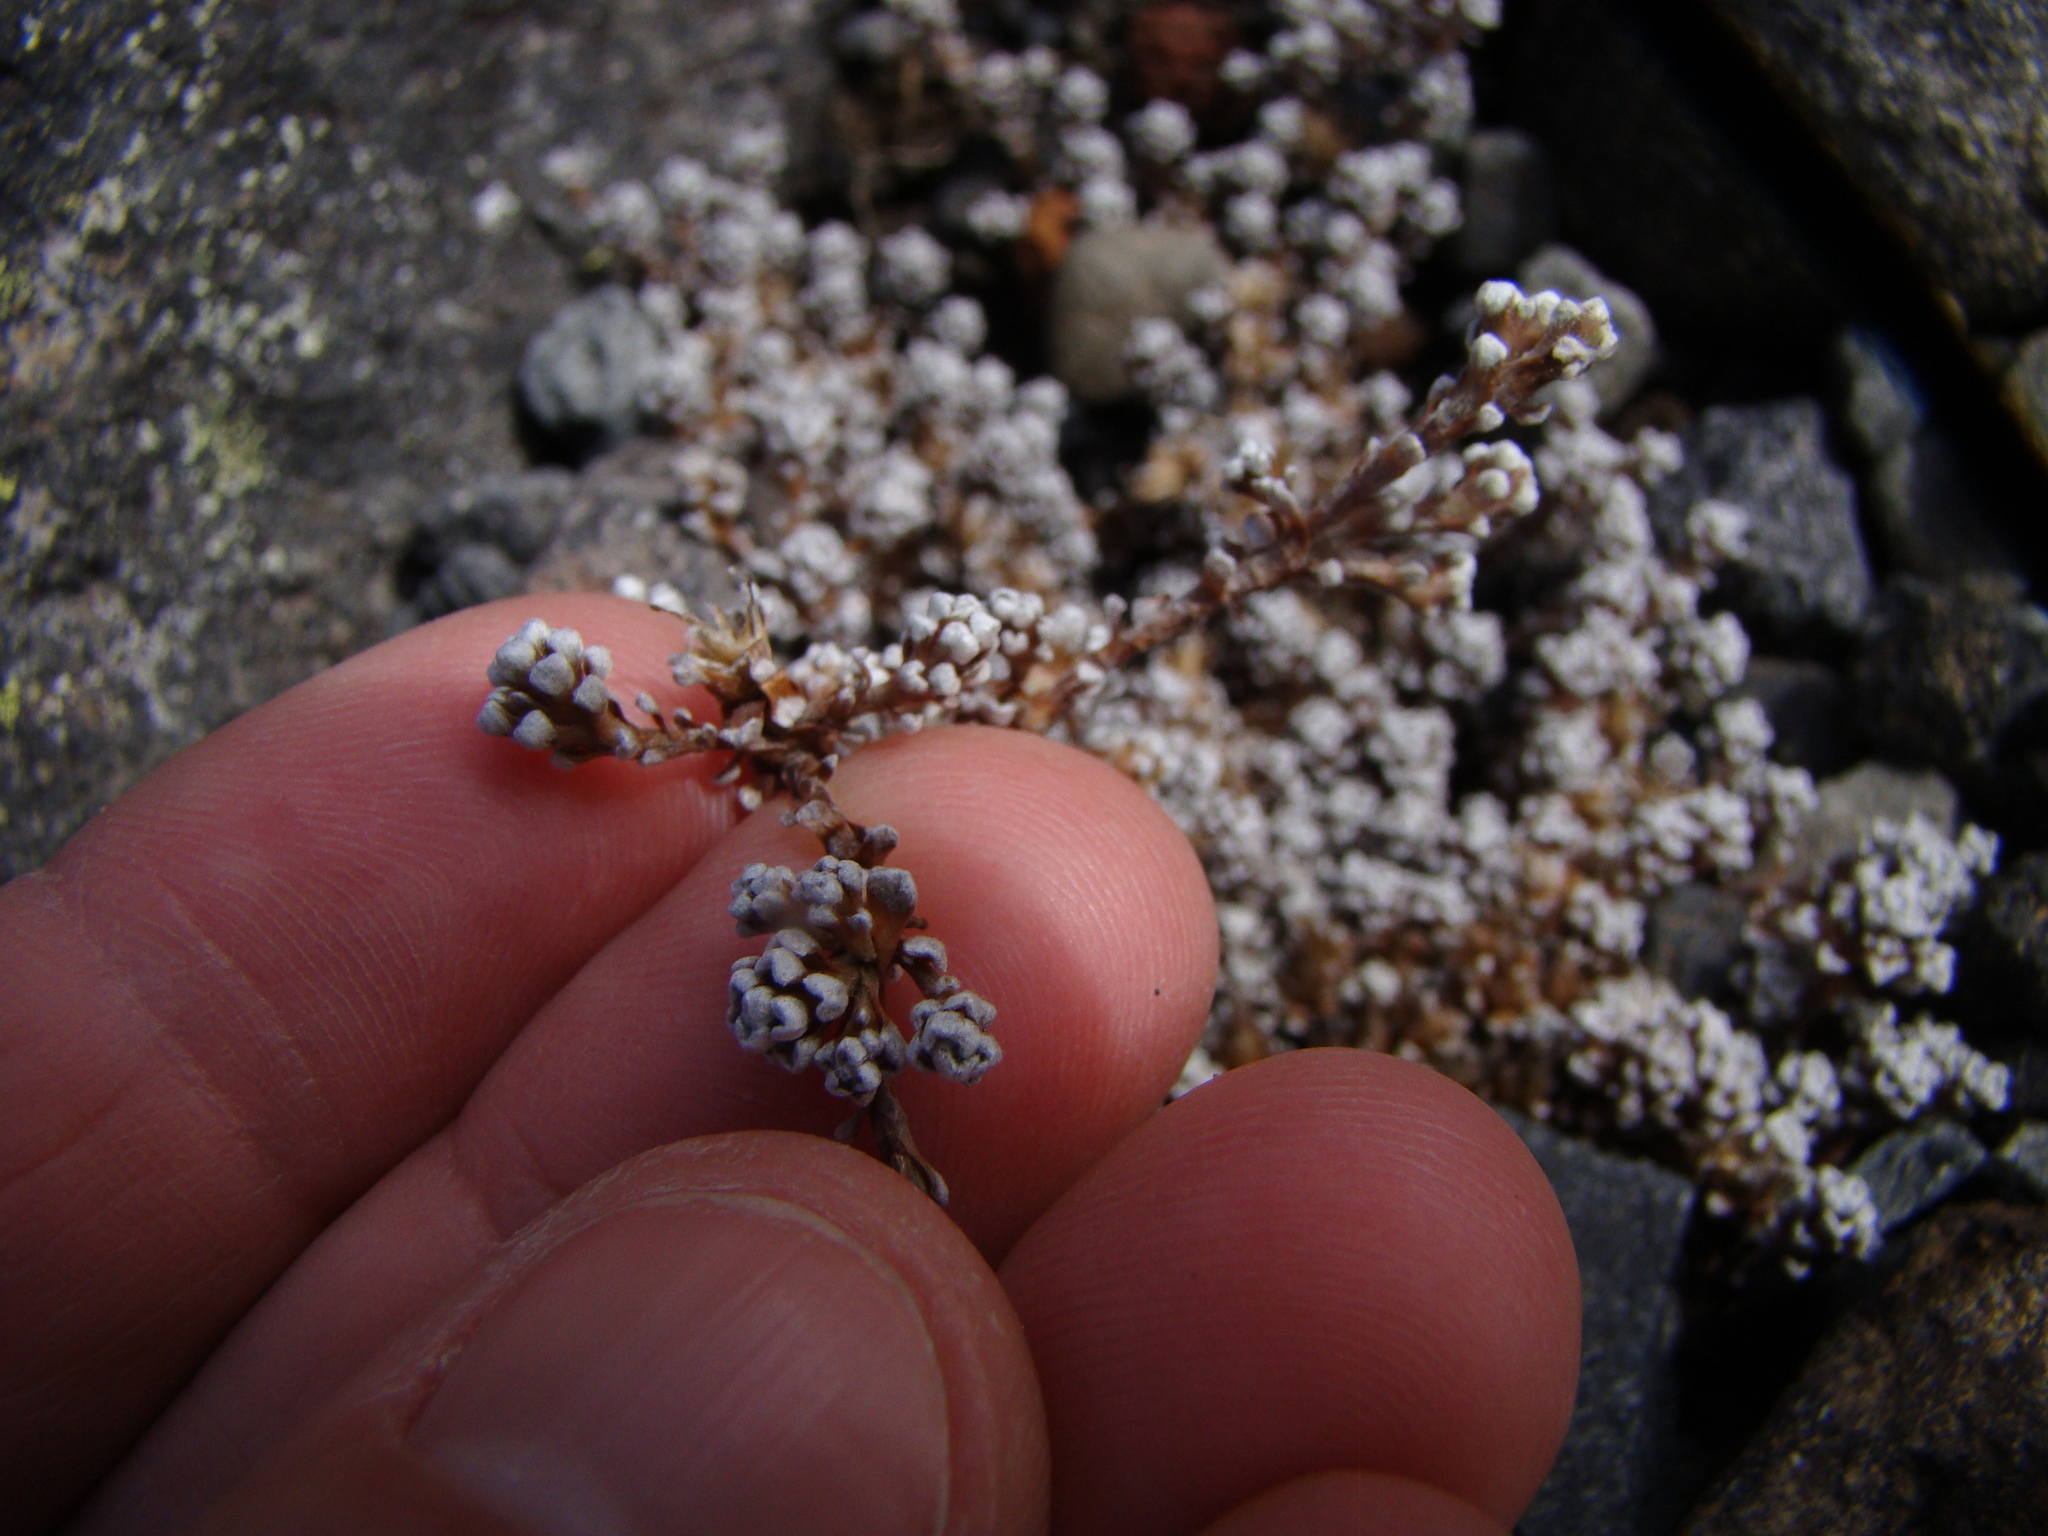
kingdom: Plantae
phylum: Tracheophyta
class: Magnoliopsida
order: Asterales
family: Asteraceae
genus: Raoulia
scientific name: Raoulia albosericea
